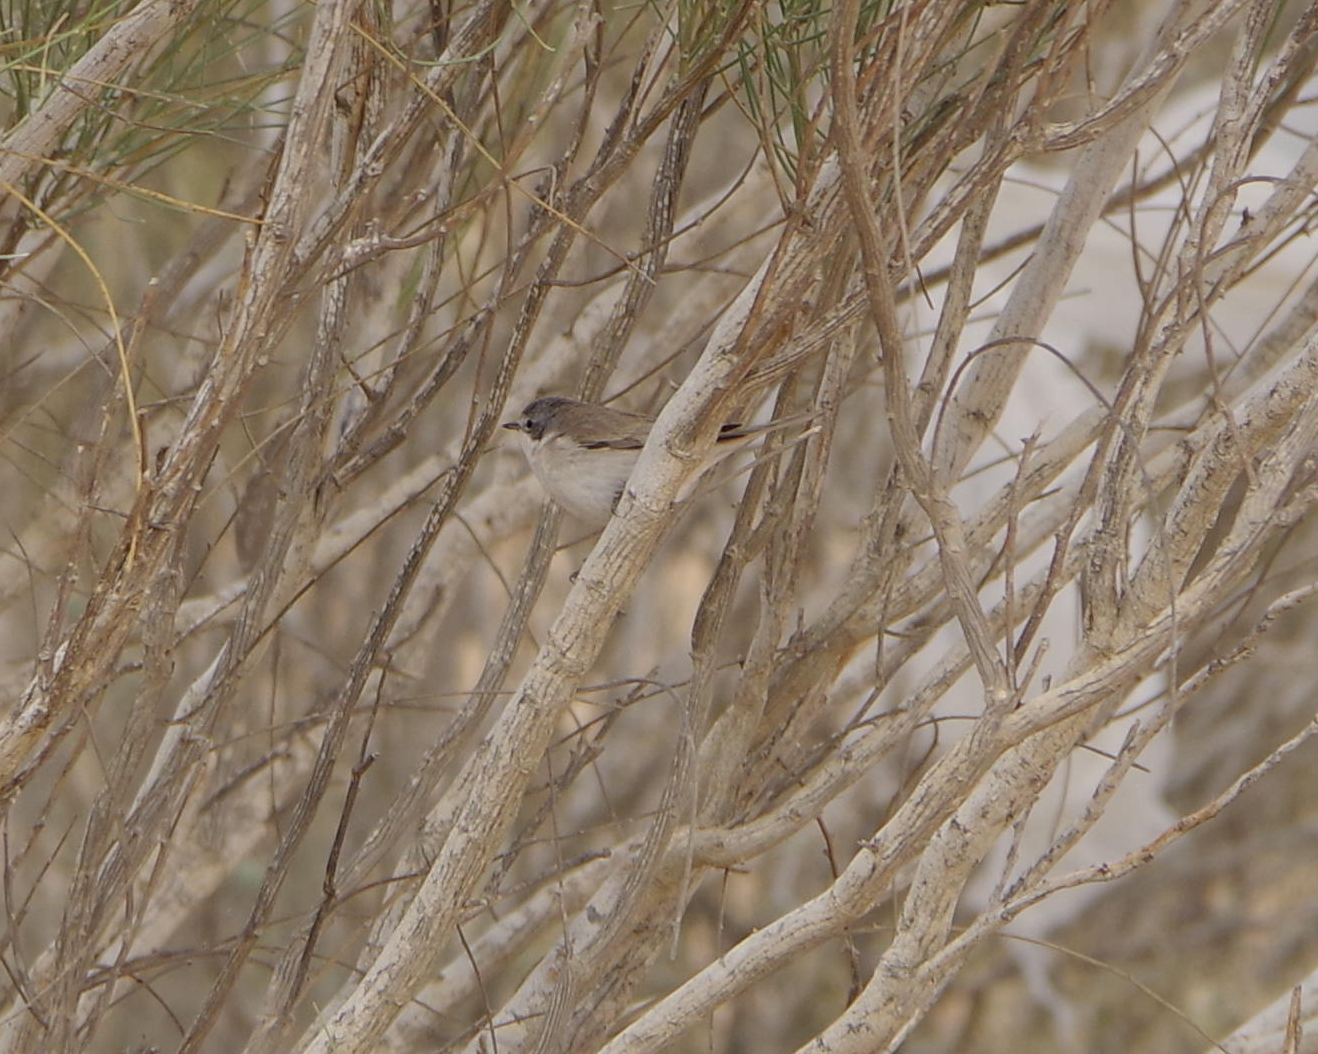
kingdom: Animalia
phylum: Chordata
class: Aves
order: Passeriformes
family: Sylviidae
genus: Sylvia
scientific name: Sylvia curruca
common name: Lesser whitethroat
